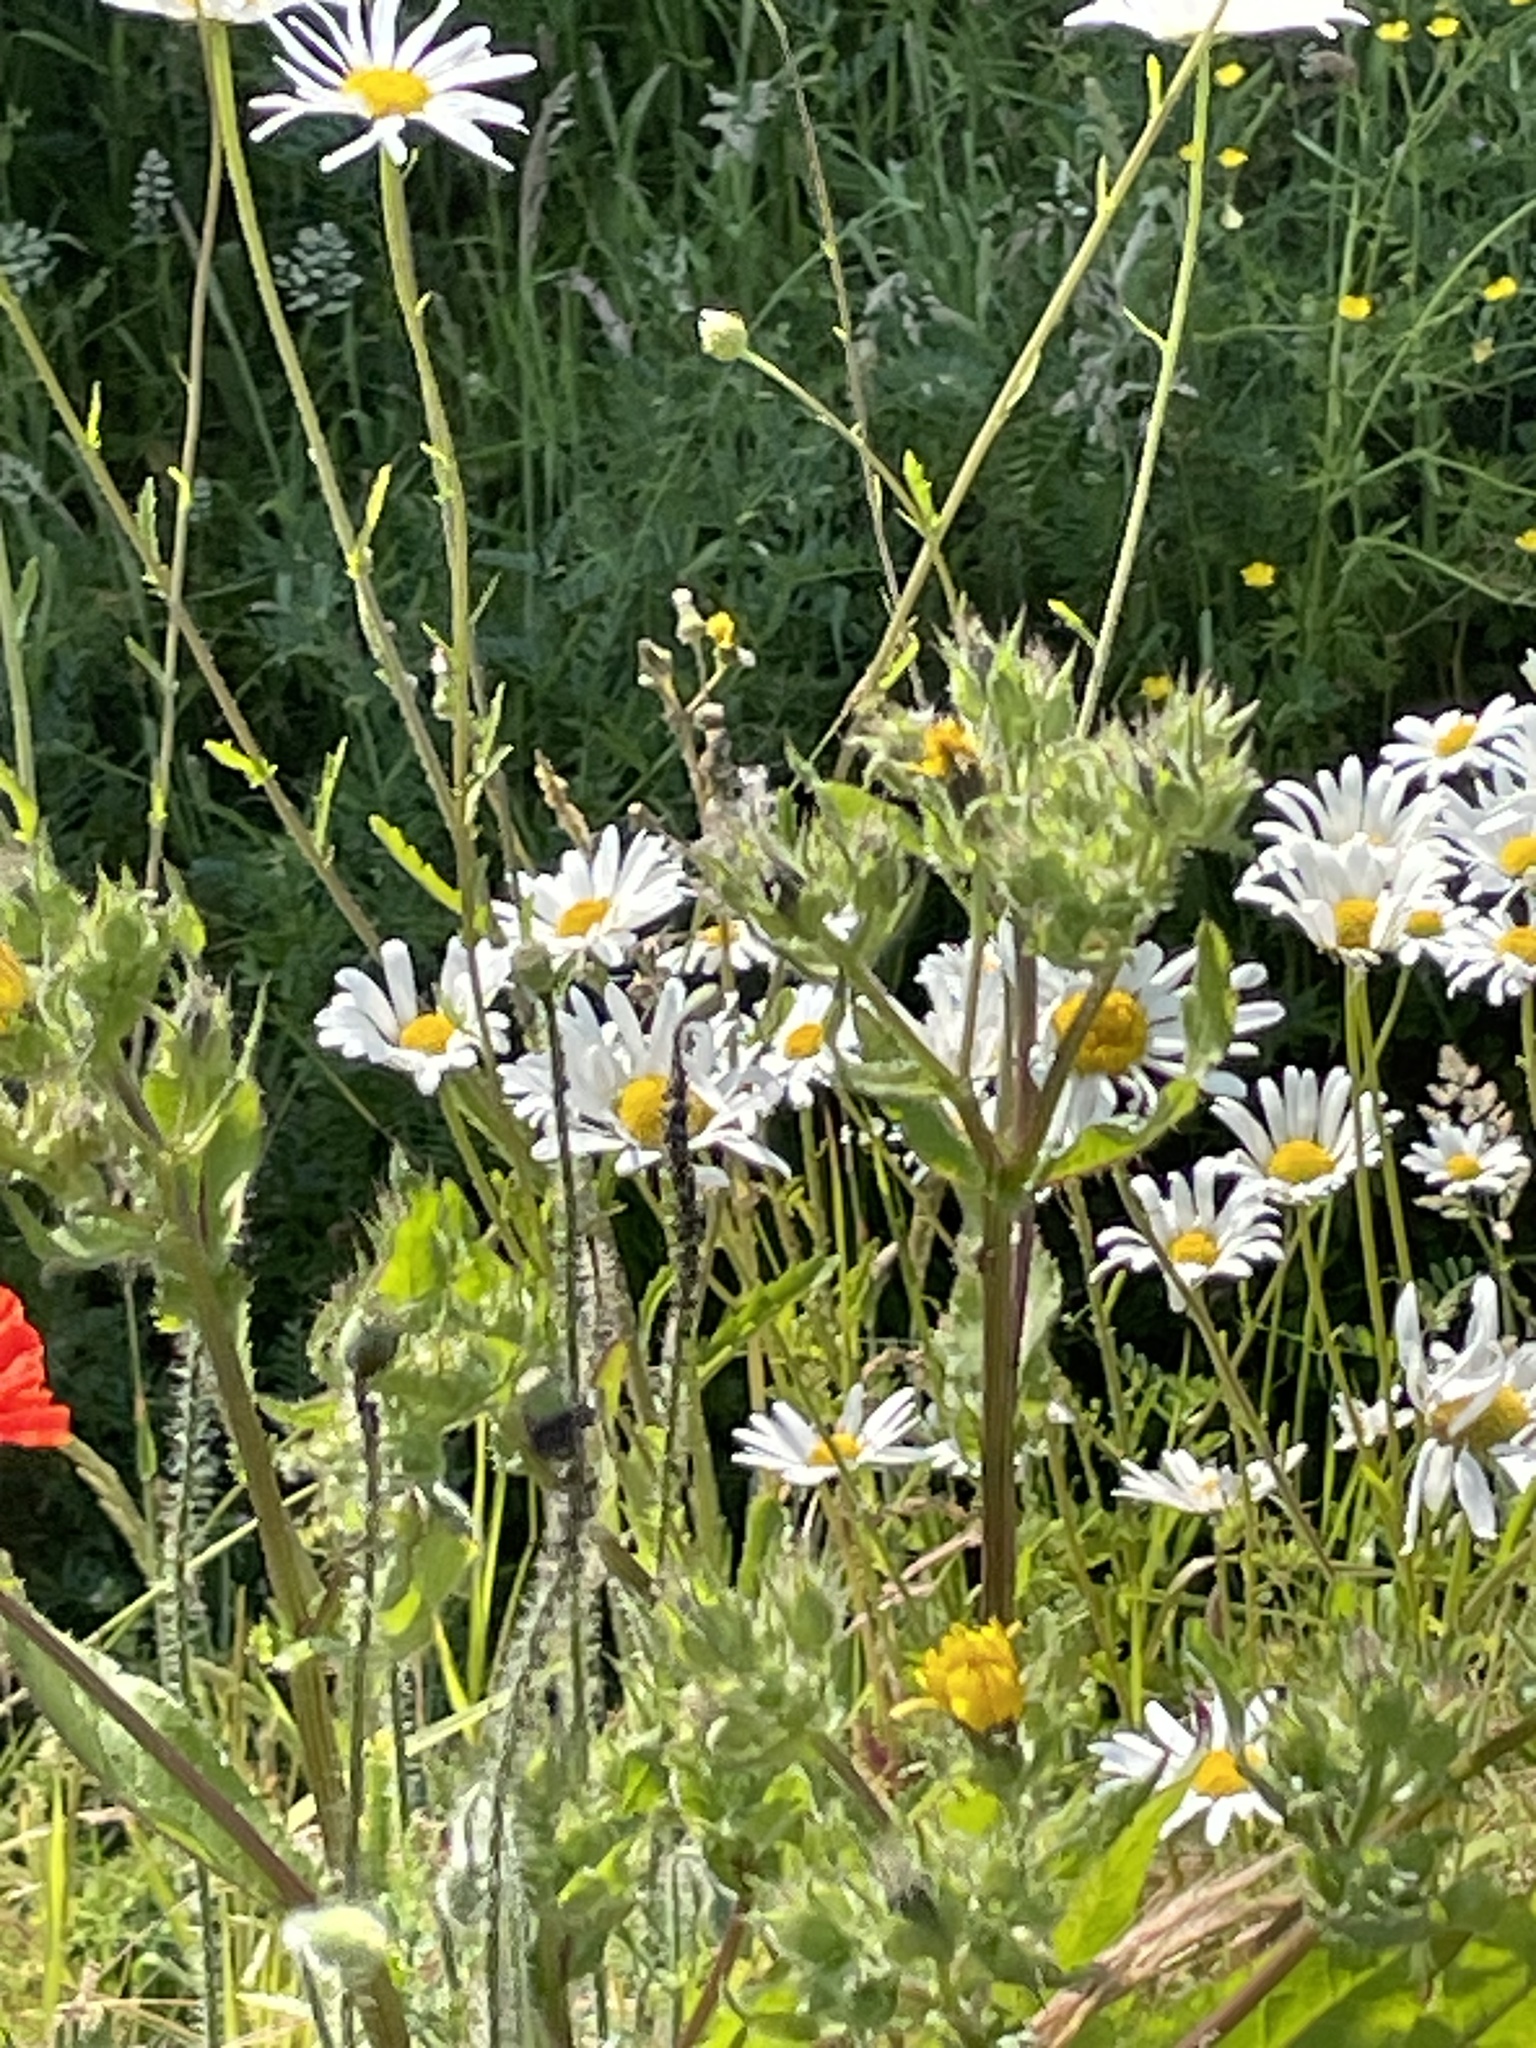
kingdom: Plantae
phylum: Tracheophyta
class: Magnoliopsida
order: Asterales
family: Asteraceae
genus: Helminthotheca
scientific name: Helminthotheca echioides
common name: Ox-tongue
